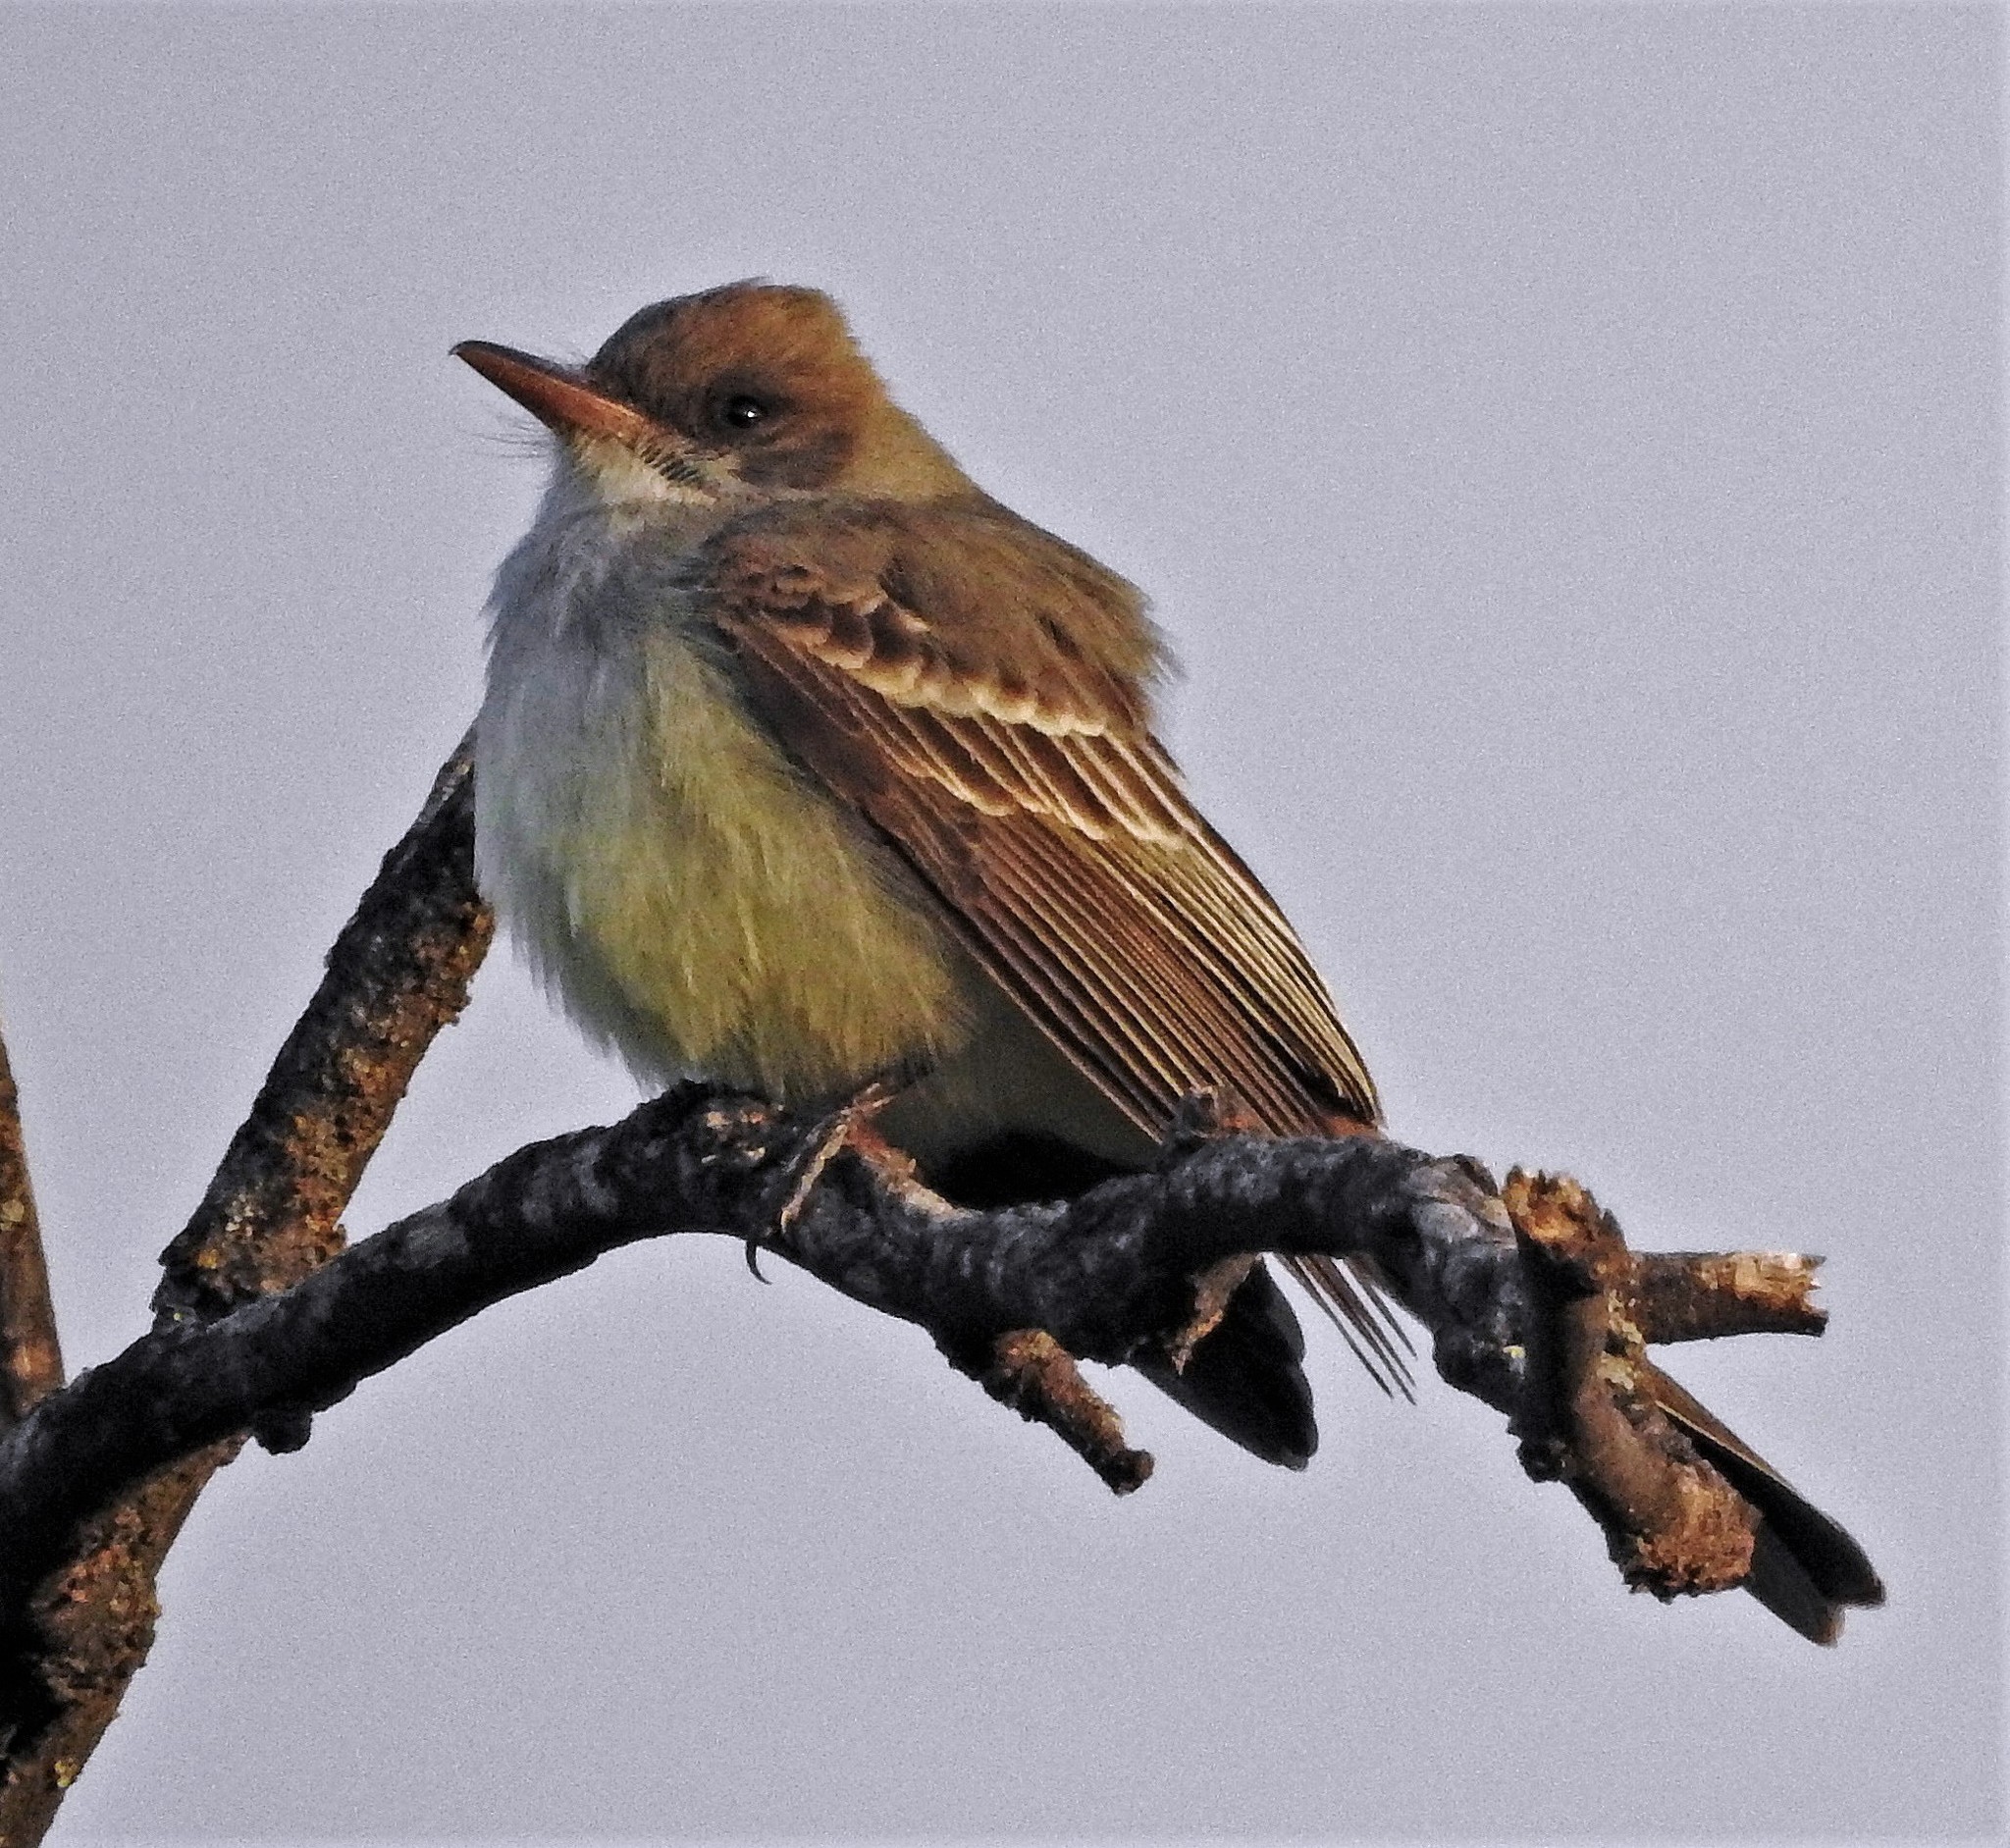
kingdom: Animalia
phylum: Chordata
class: Aves
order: Passeriformes
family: Tyrannidae
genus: Myiarchus
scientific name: Myiarchus swainsoni
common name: Swainson's flycatcher
